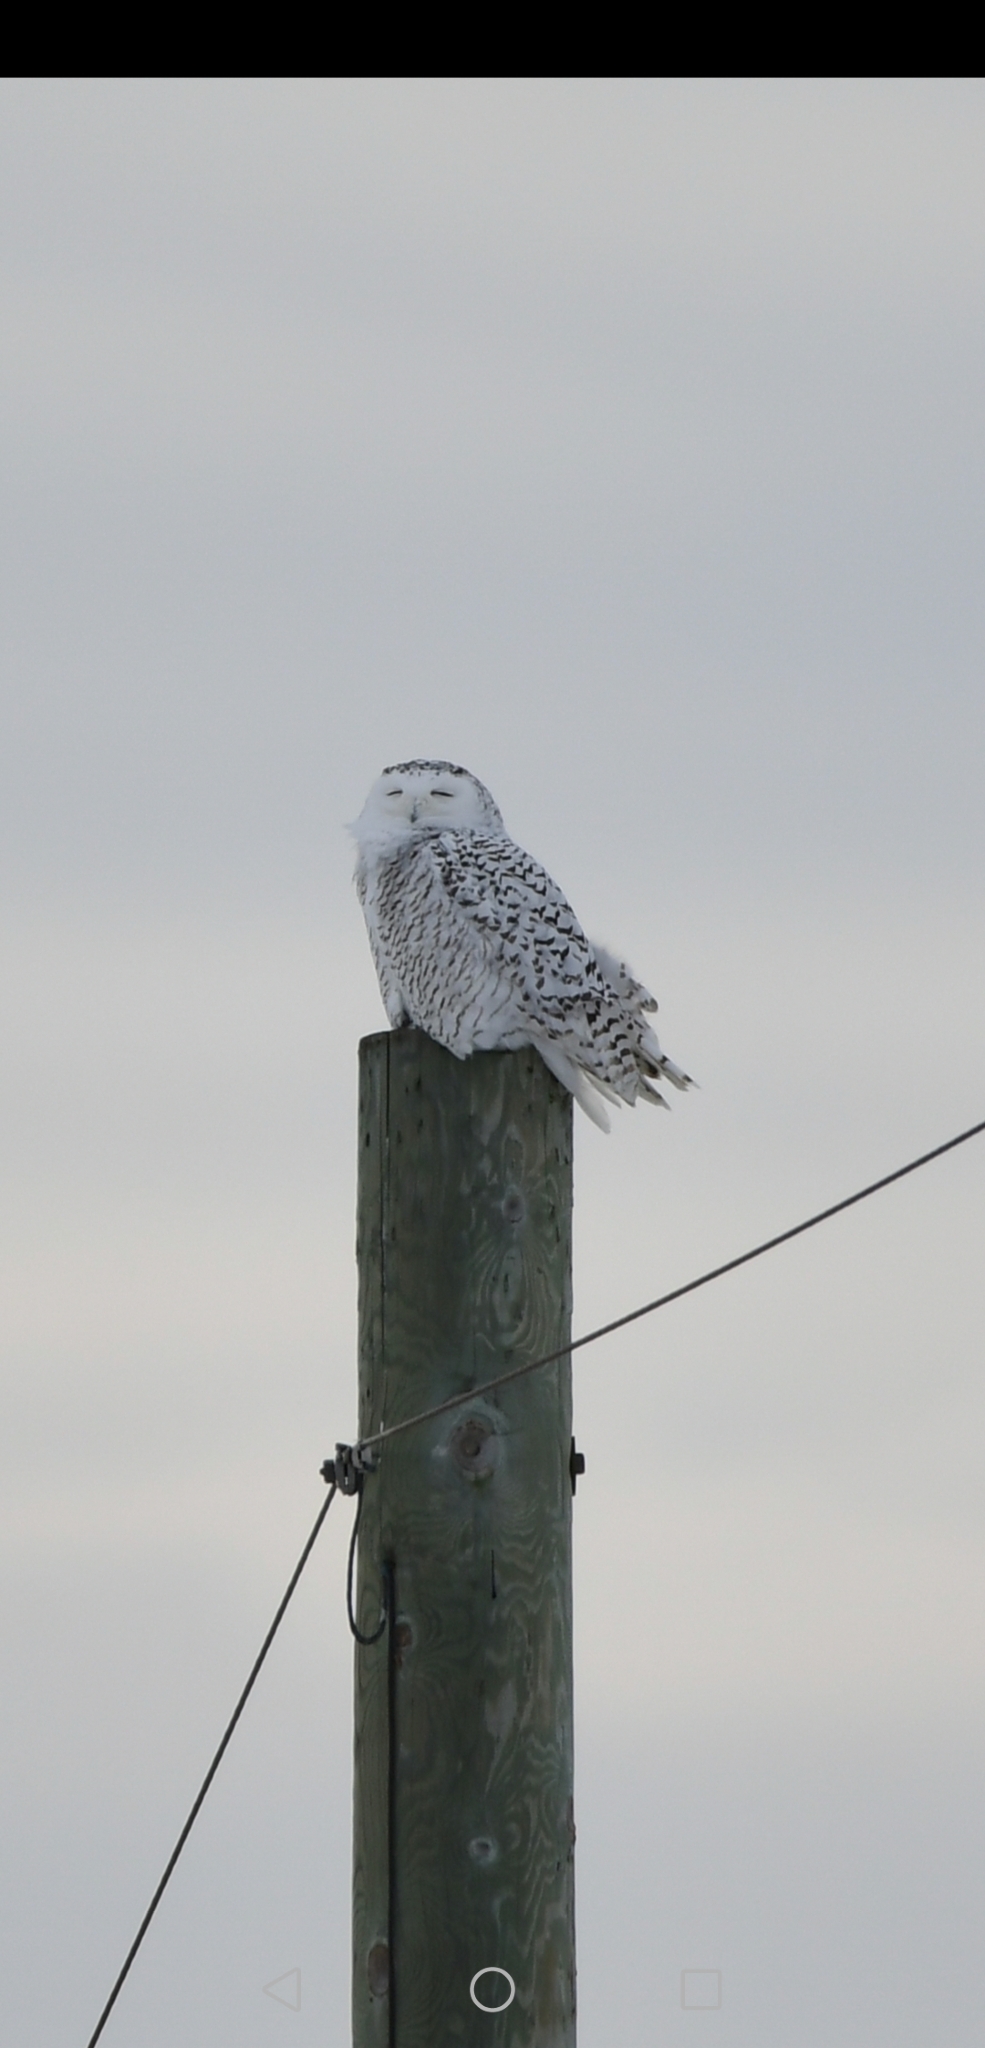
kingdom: Animalia
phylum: Chordata
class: Aves
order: Strigiformes
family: Strigidae
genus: Bubo
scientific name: Bubo scandiacus
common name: Snowy owl
